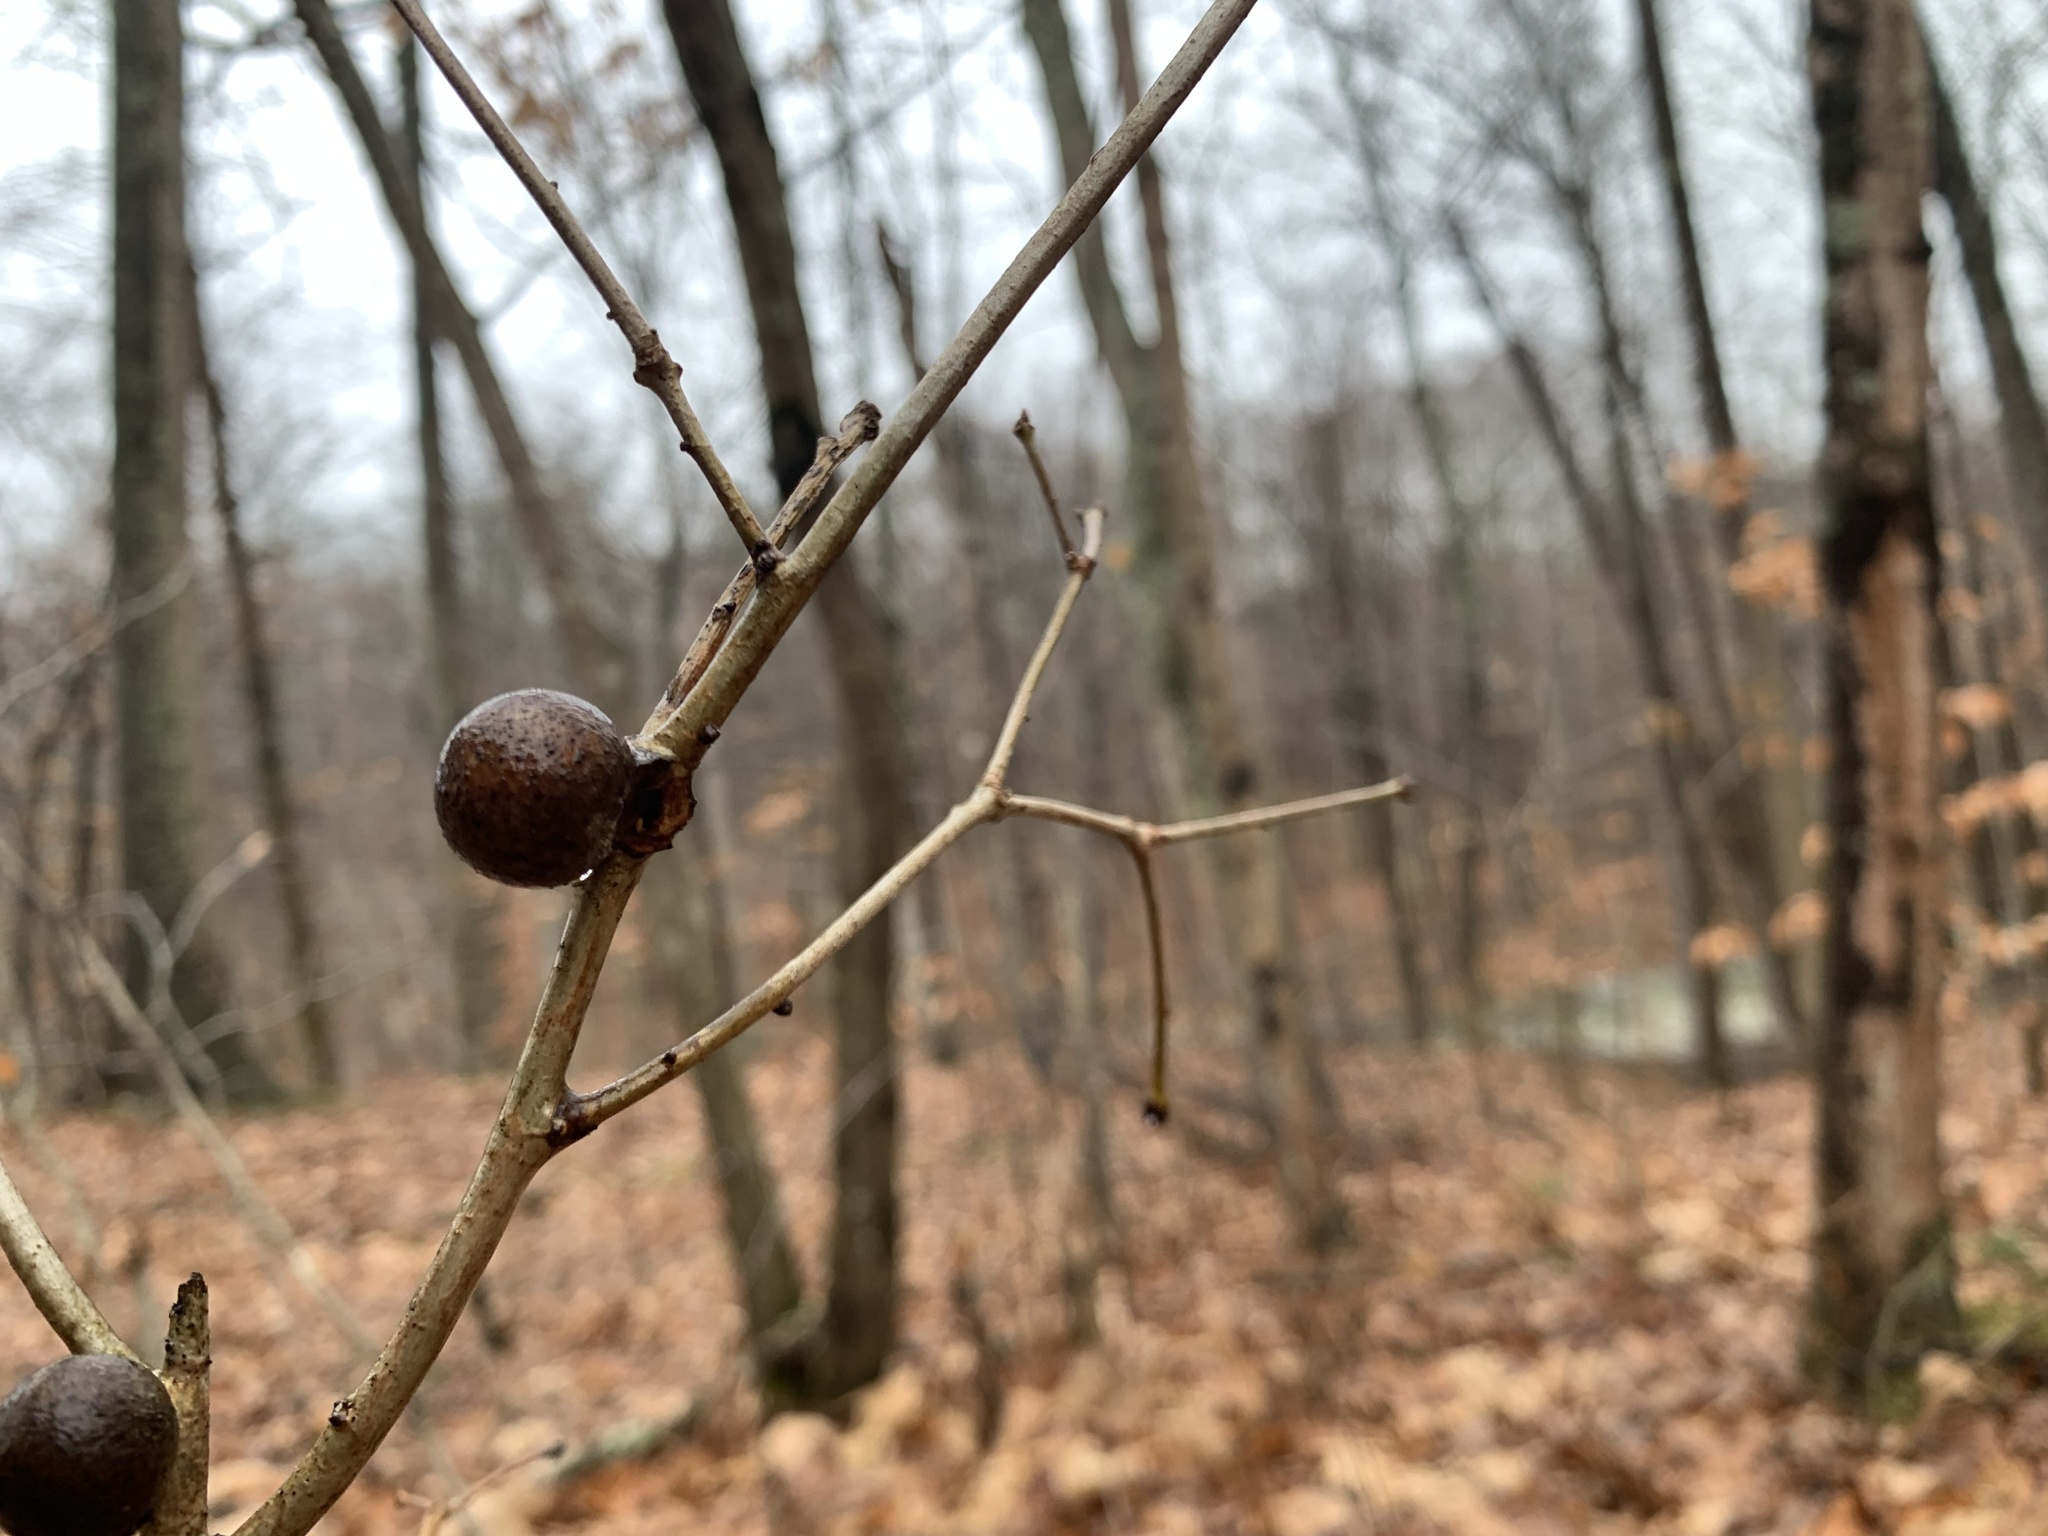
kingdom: Animalia
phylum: Arthropoda
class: Insecta
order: Hymenoptera
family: Cynipidae
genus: Disholcaspis
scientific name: Disholcaspis quercusglobulus
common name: Round bullet gall wasp
